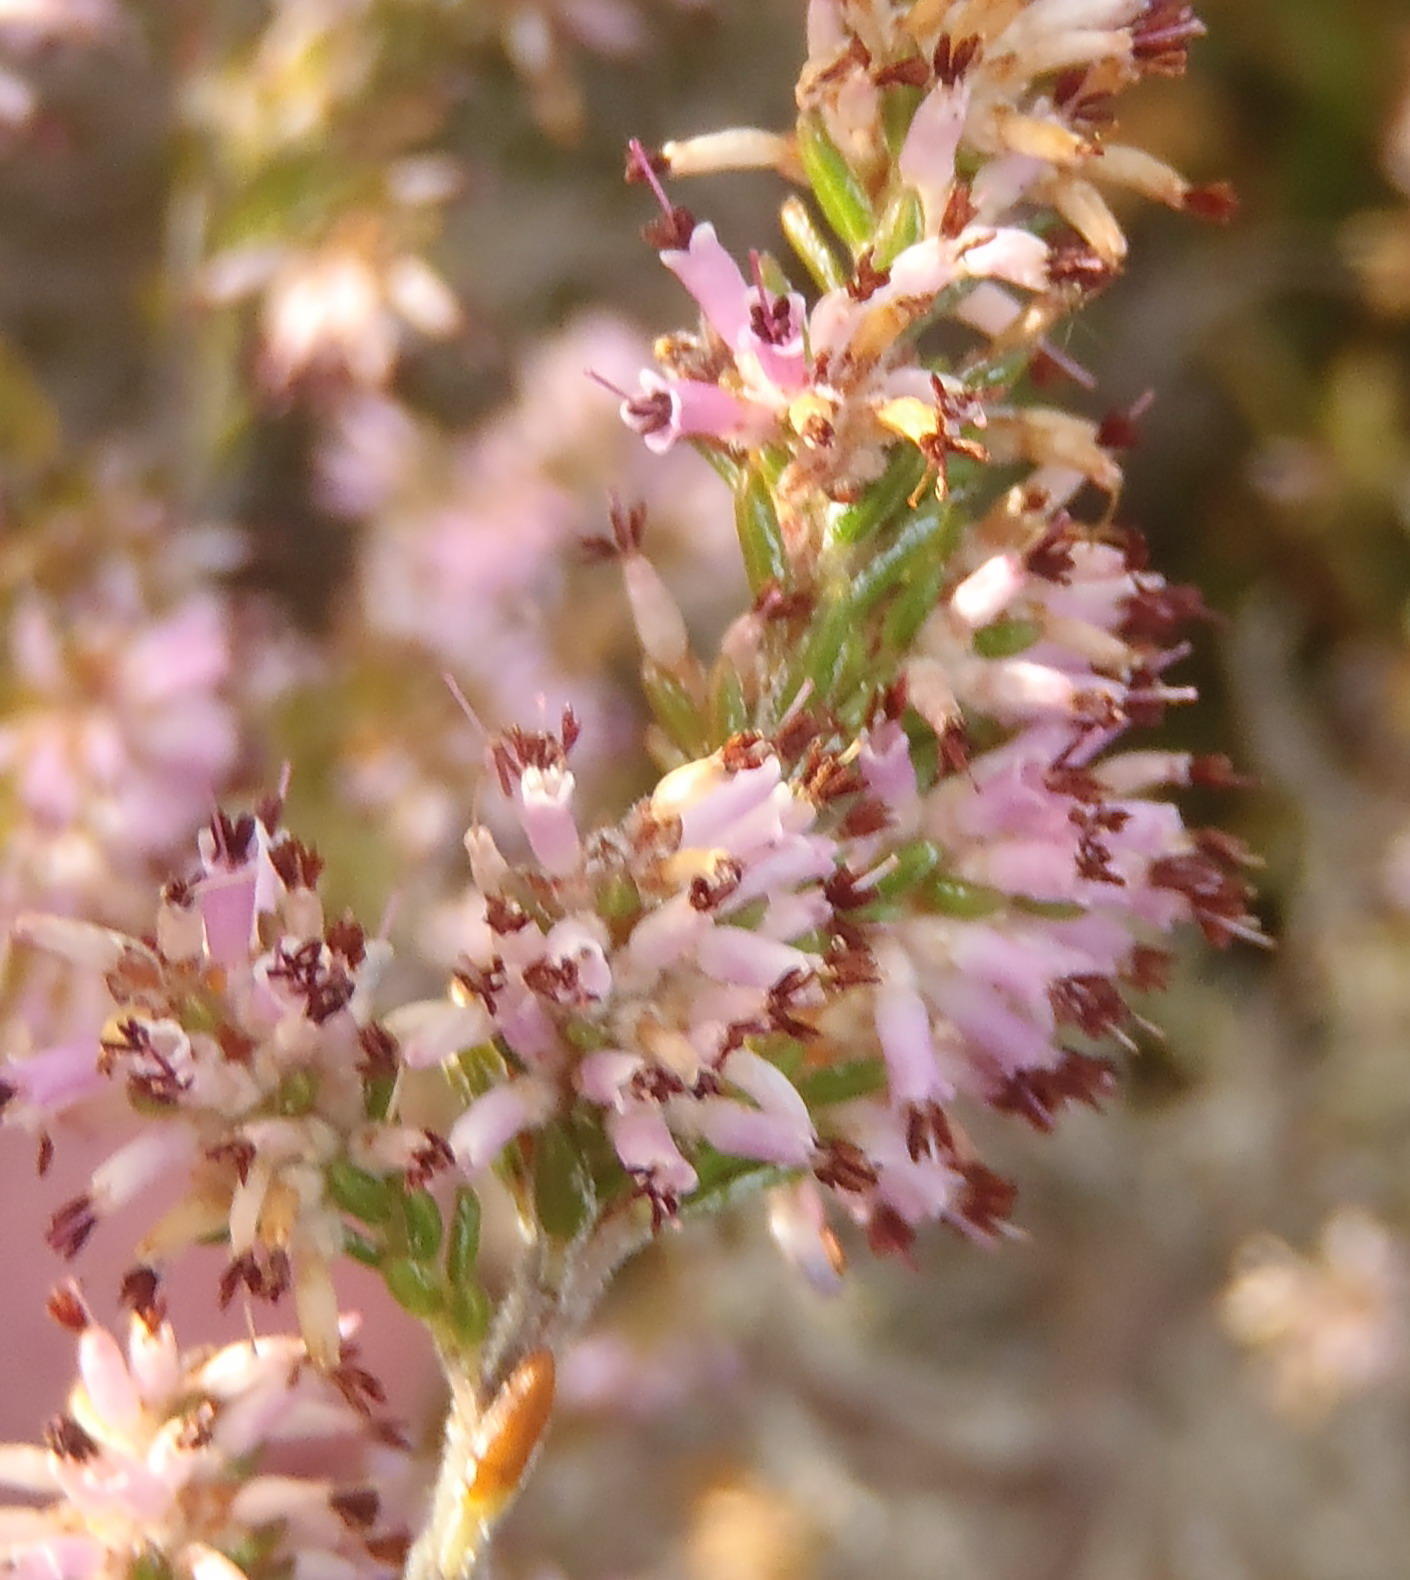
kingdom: Plantae
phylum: Tracheophyta
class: Magnoliopsida
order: Ericales
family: Ericaceae
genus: Erica
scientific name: Erica uberiflora
